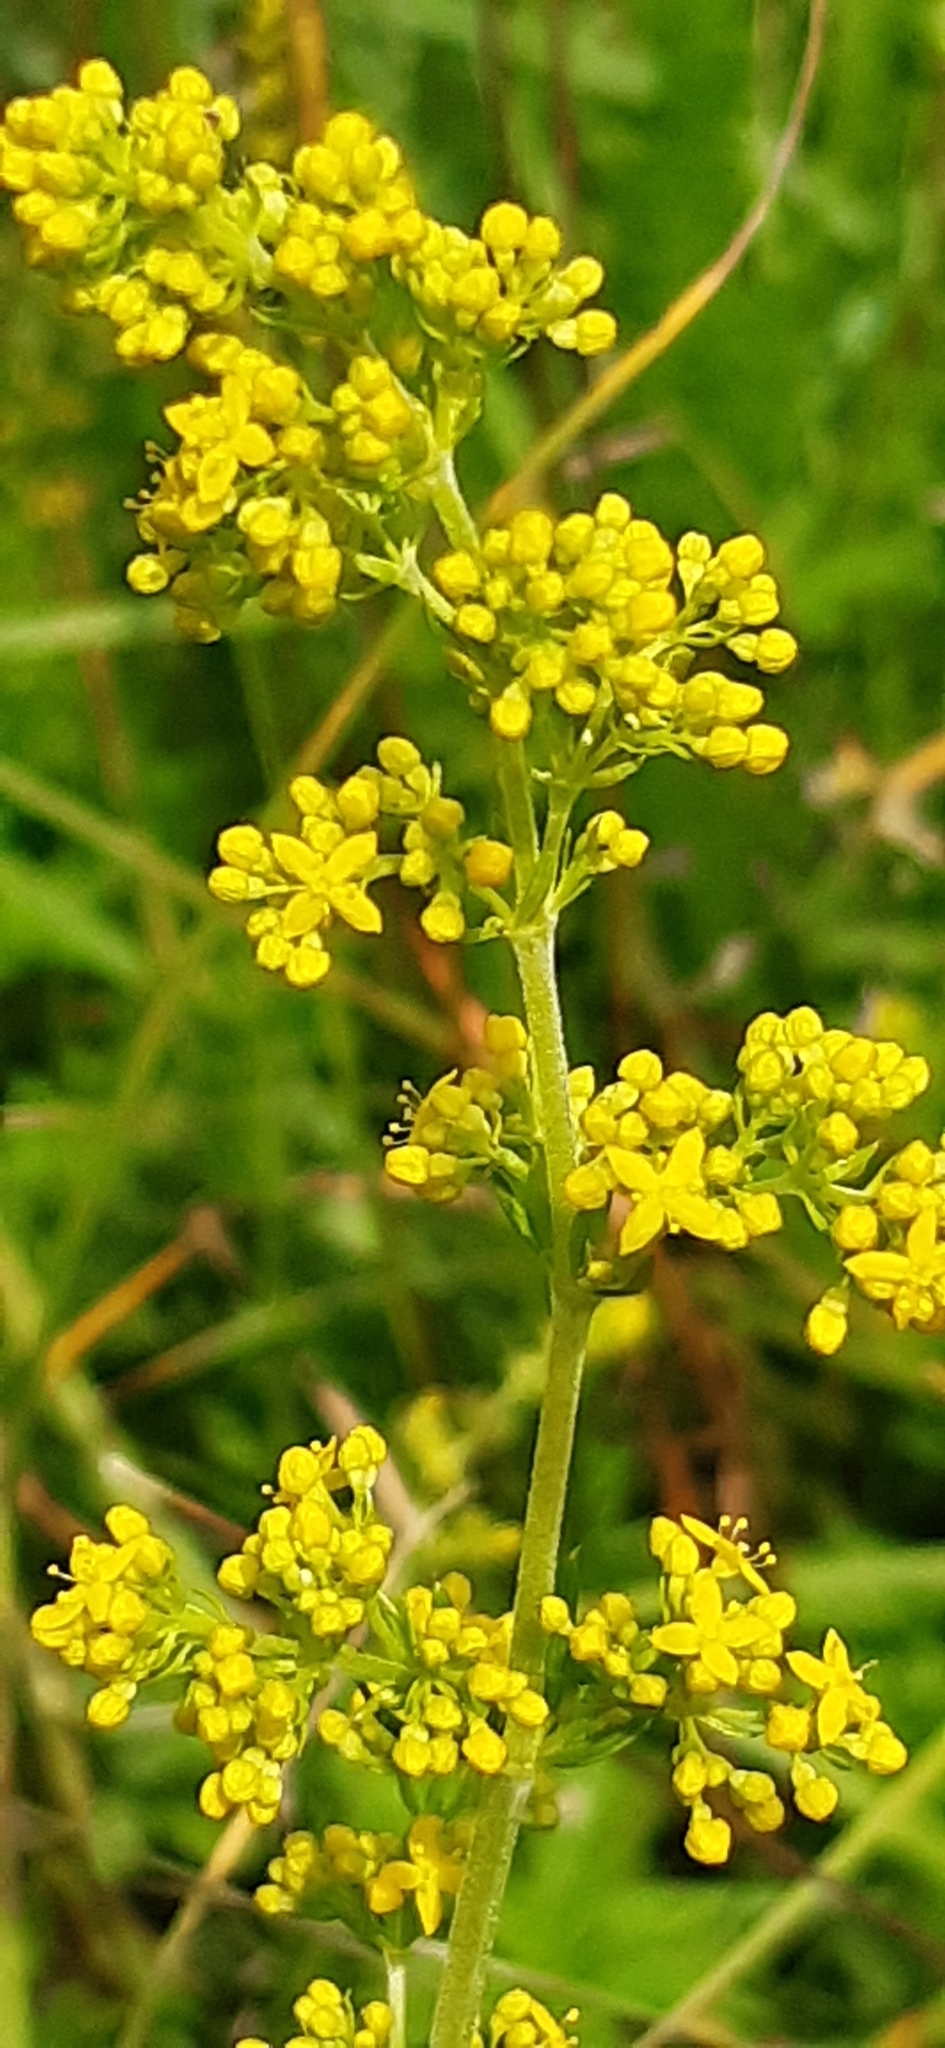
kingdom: Plantae
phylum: Tracheophyta
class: Magnoliopsida
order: Gentianales
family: Rubiaceae
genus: Galium
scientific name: Galium verum
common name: Lady's bedstraw
